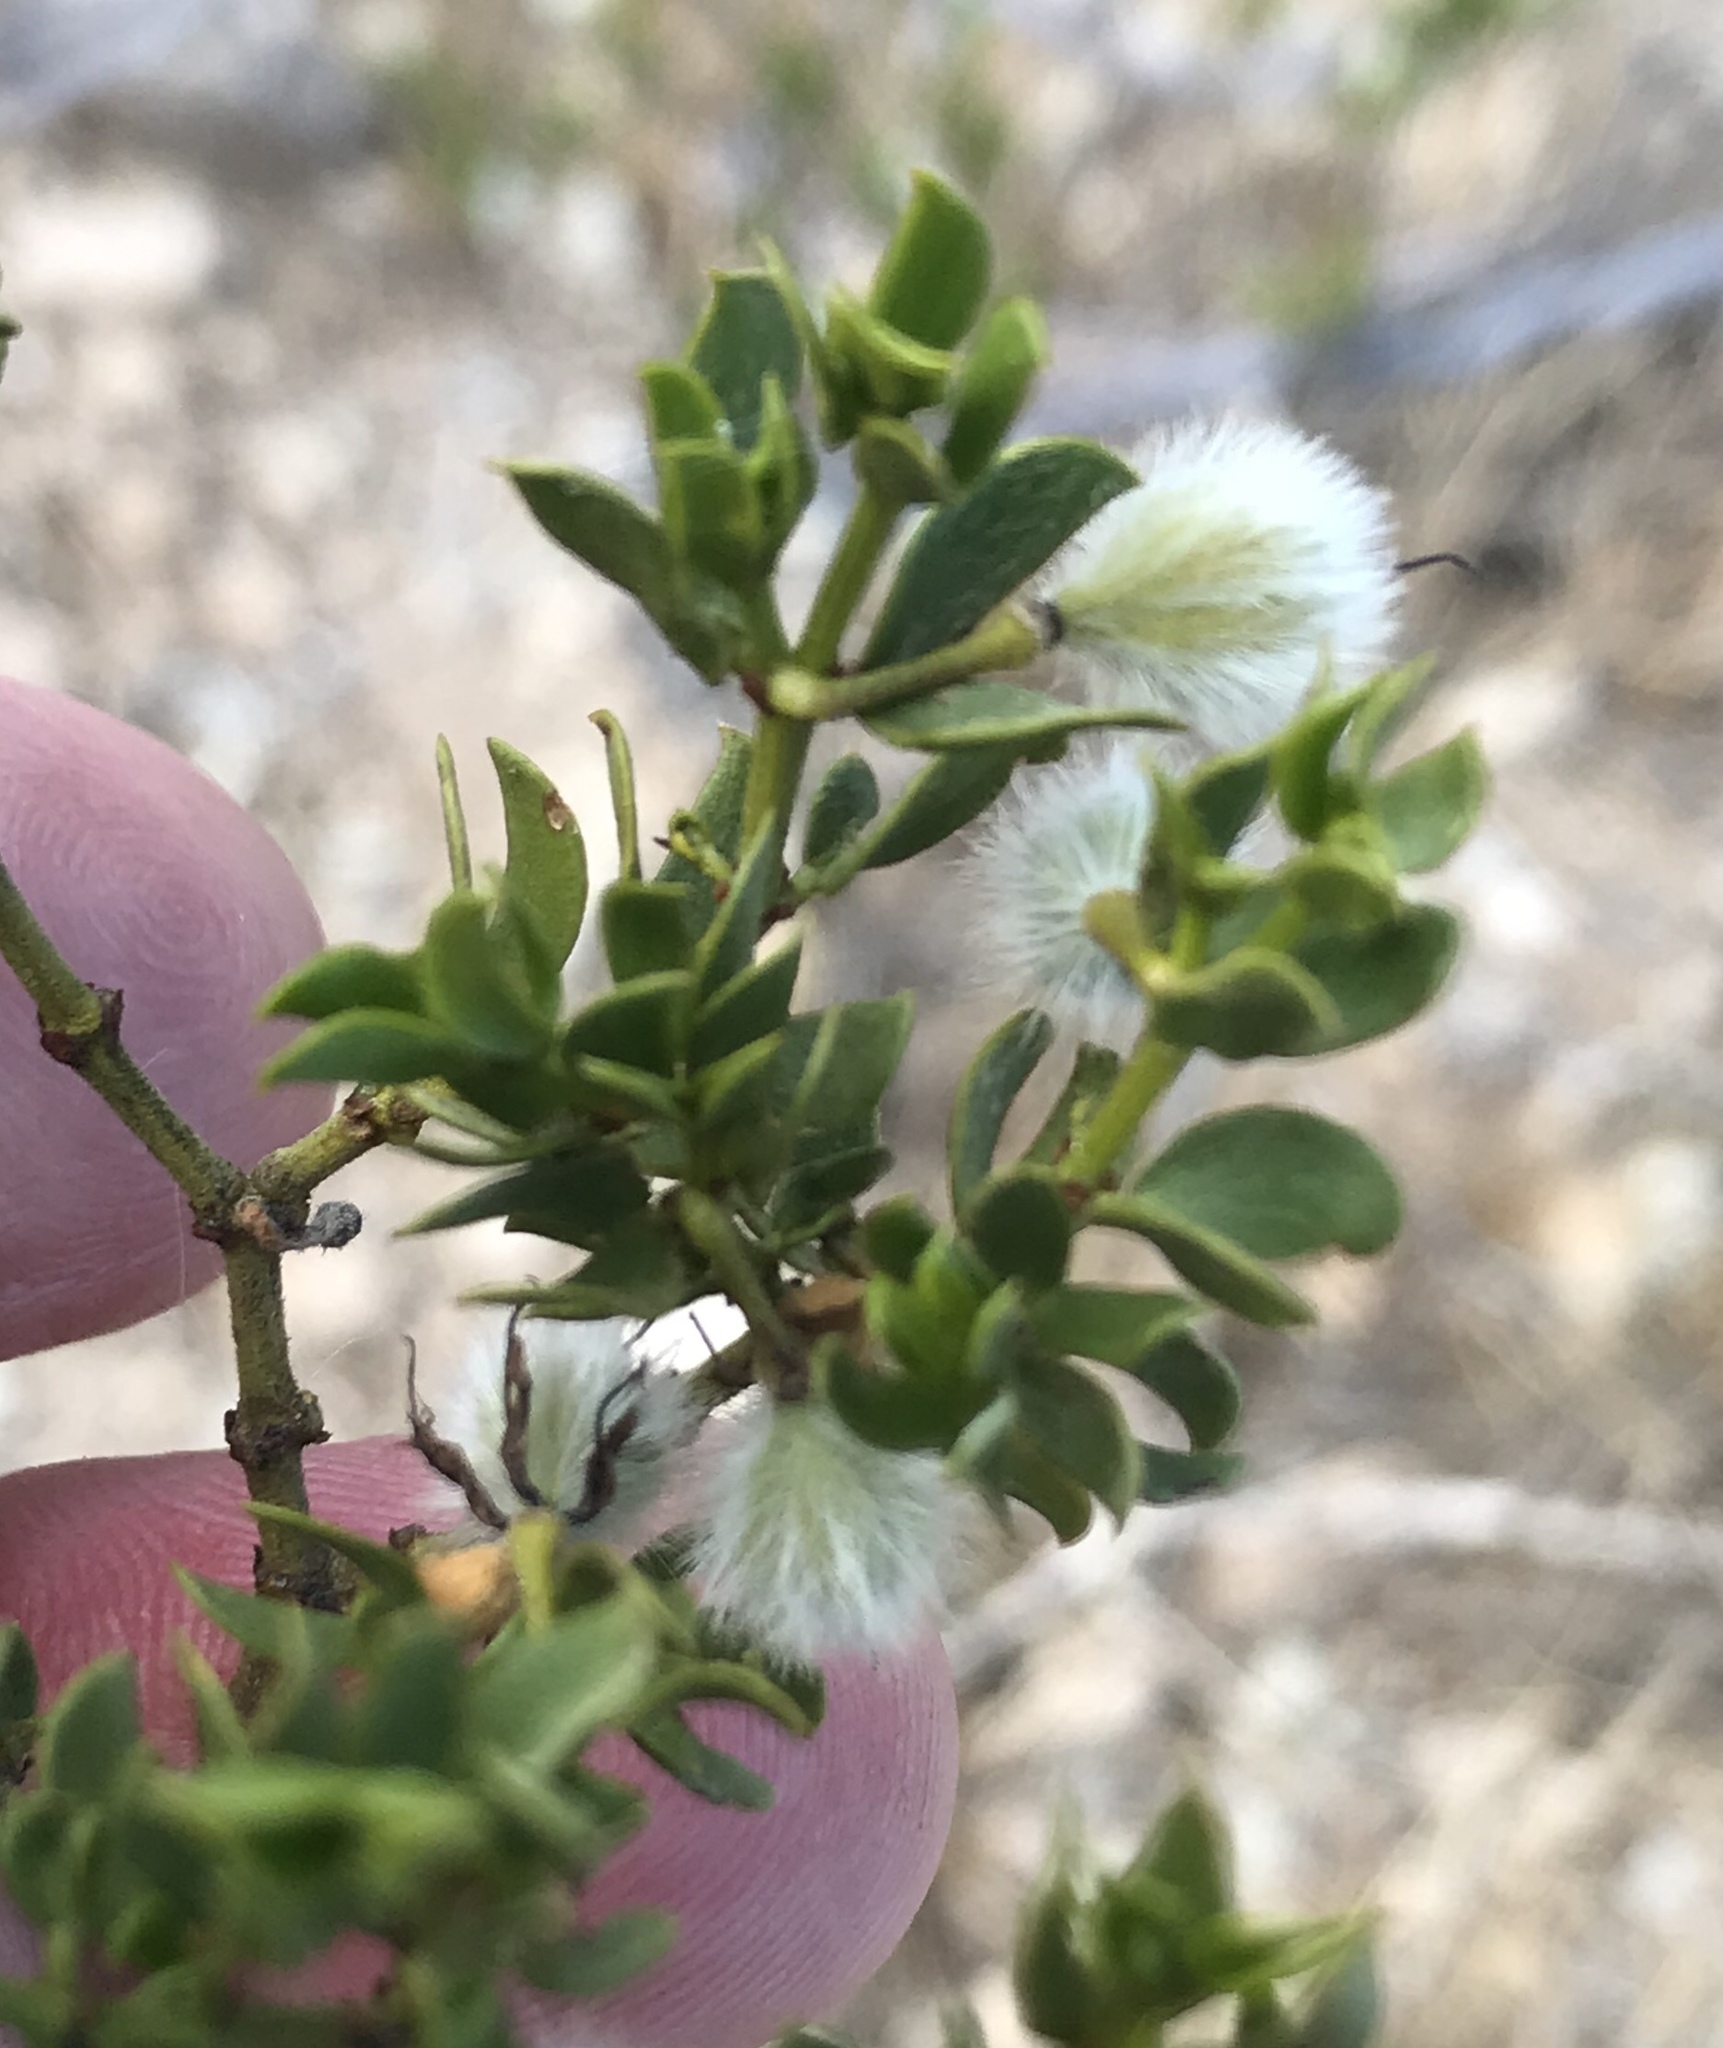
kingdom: Plantae
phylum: Tracheophyta
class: Magnoliopsida
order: Zygophyllales
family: Zygophyllaceae
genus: Larrea
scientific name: Larrea tridentata
